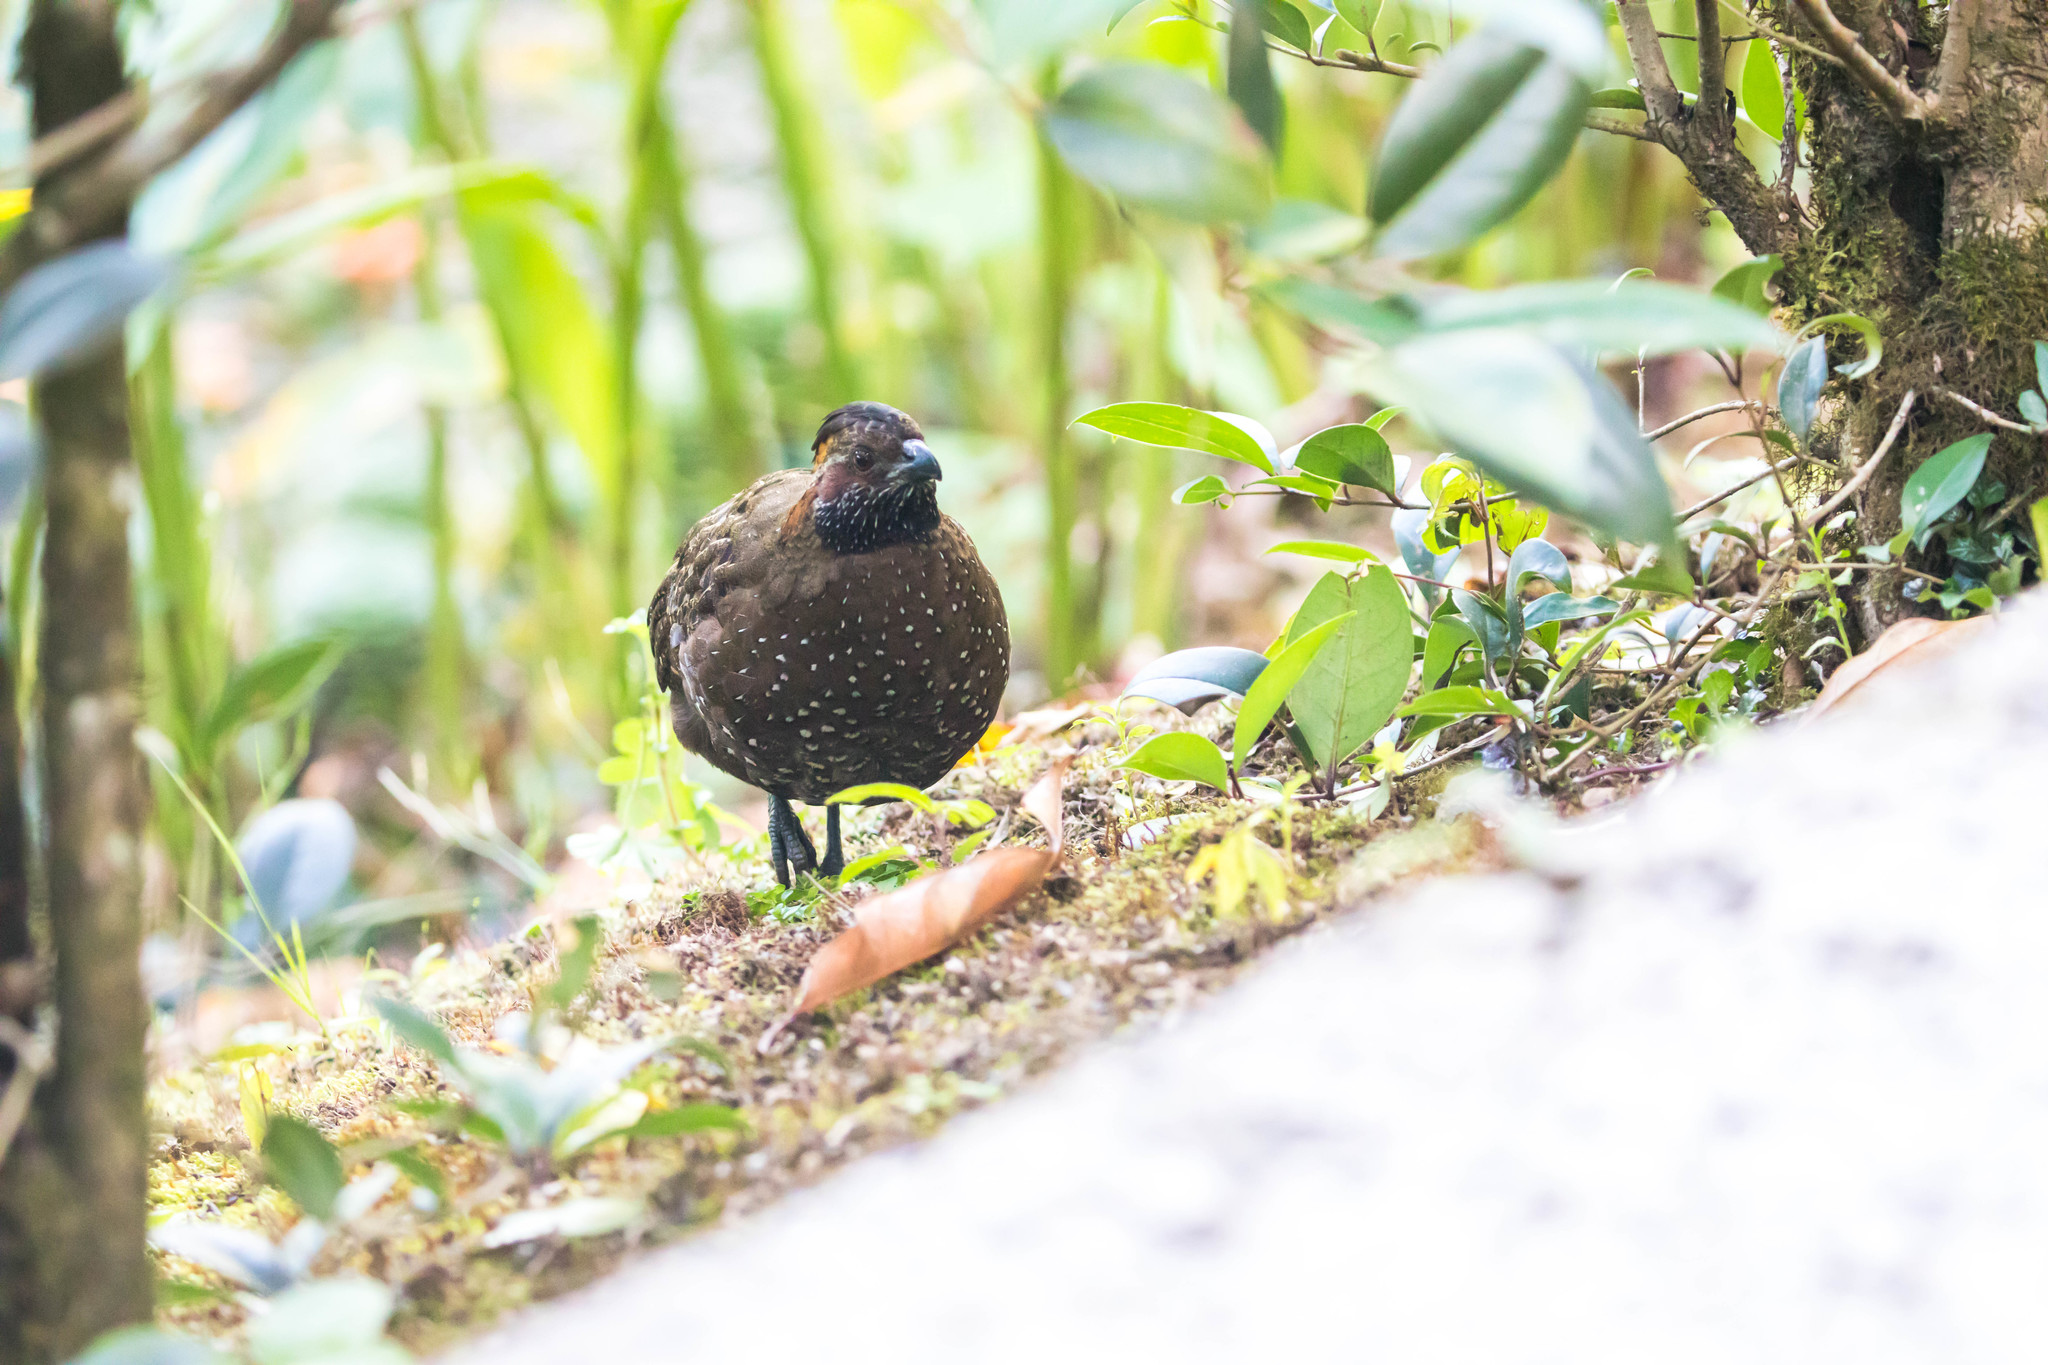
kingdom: Animalia
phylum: Chordata
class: Aves
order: Galliformes
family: Odontophoridae
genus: Odontophorus
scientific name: Odontophorus guttatus
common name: Spotted wood-quail
